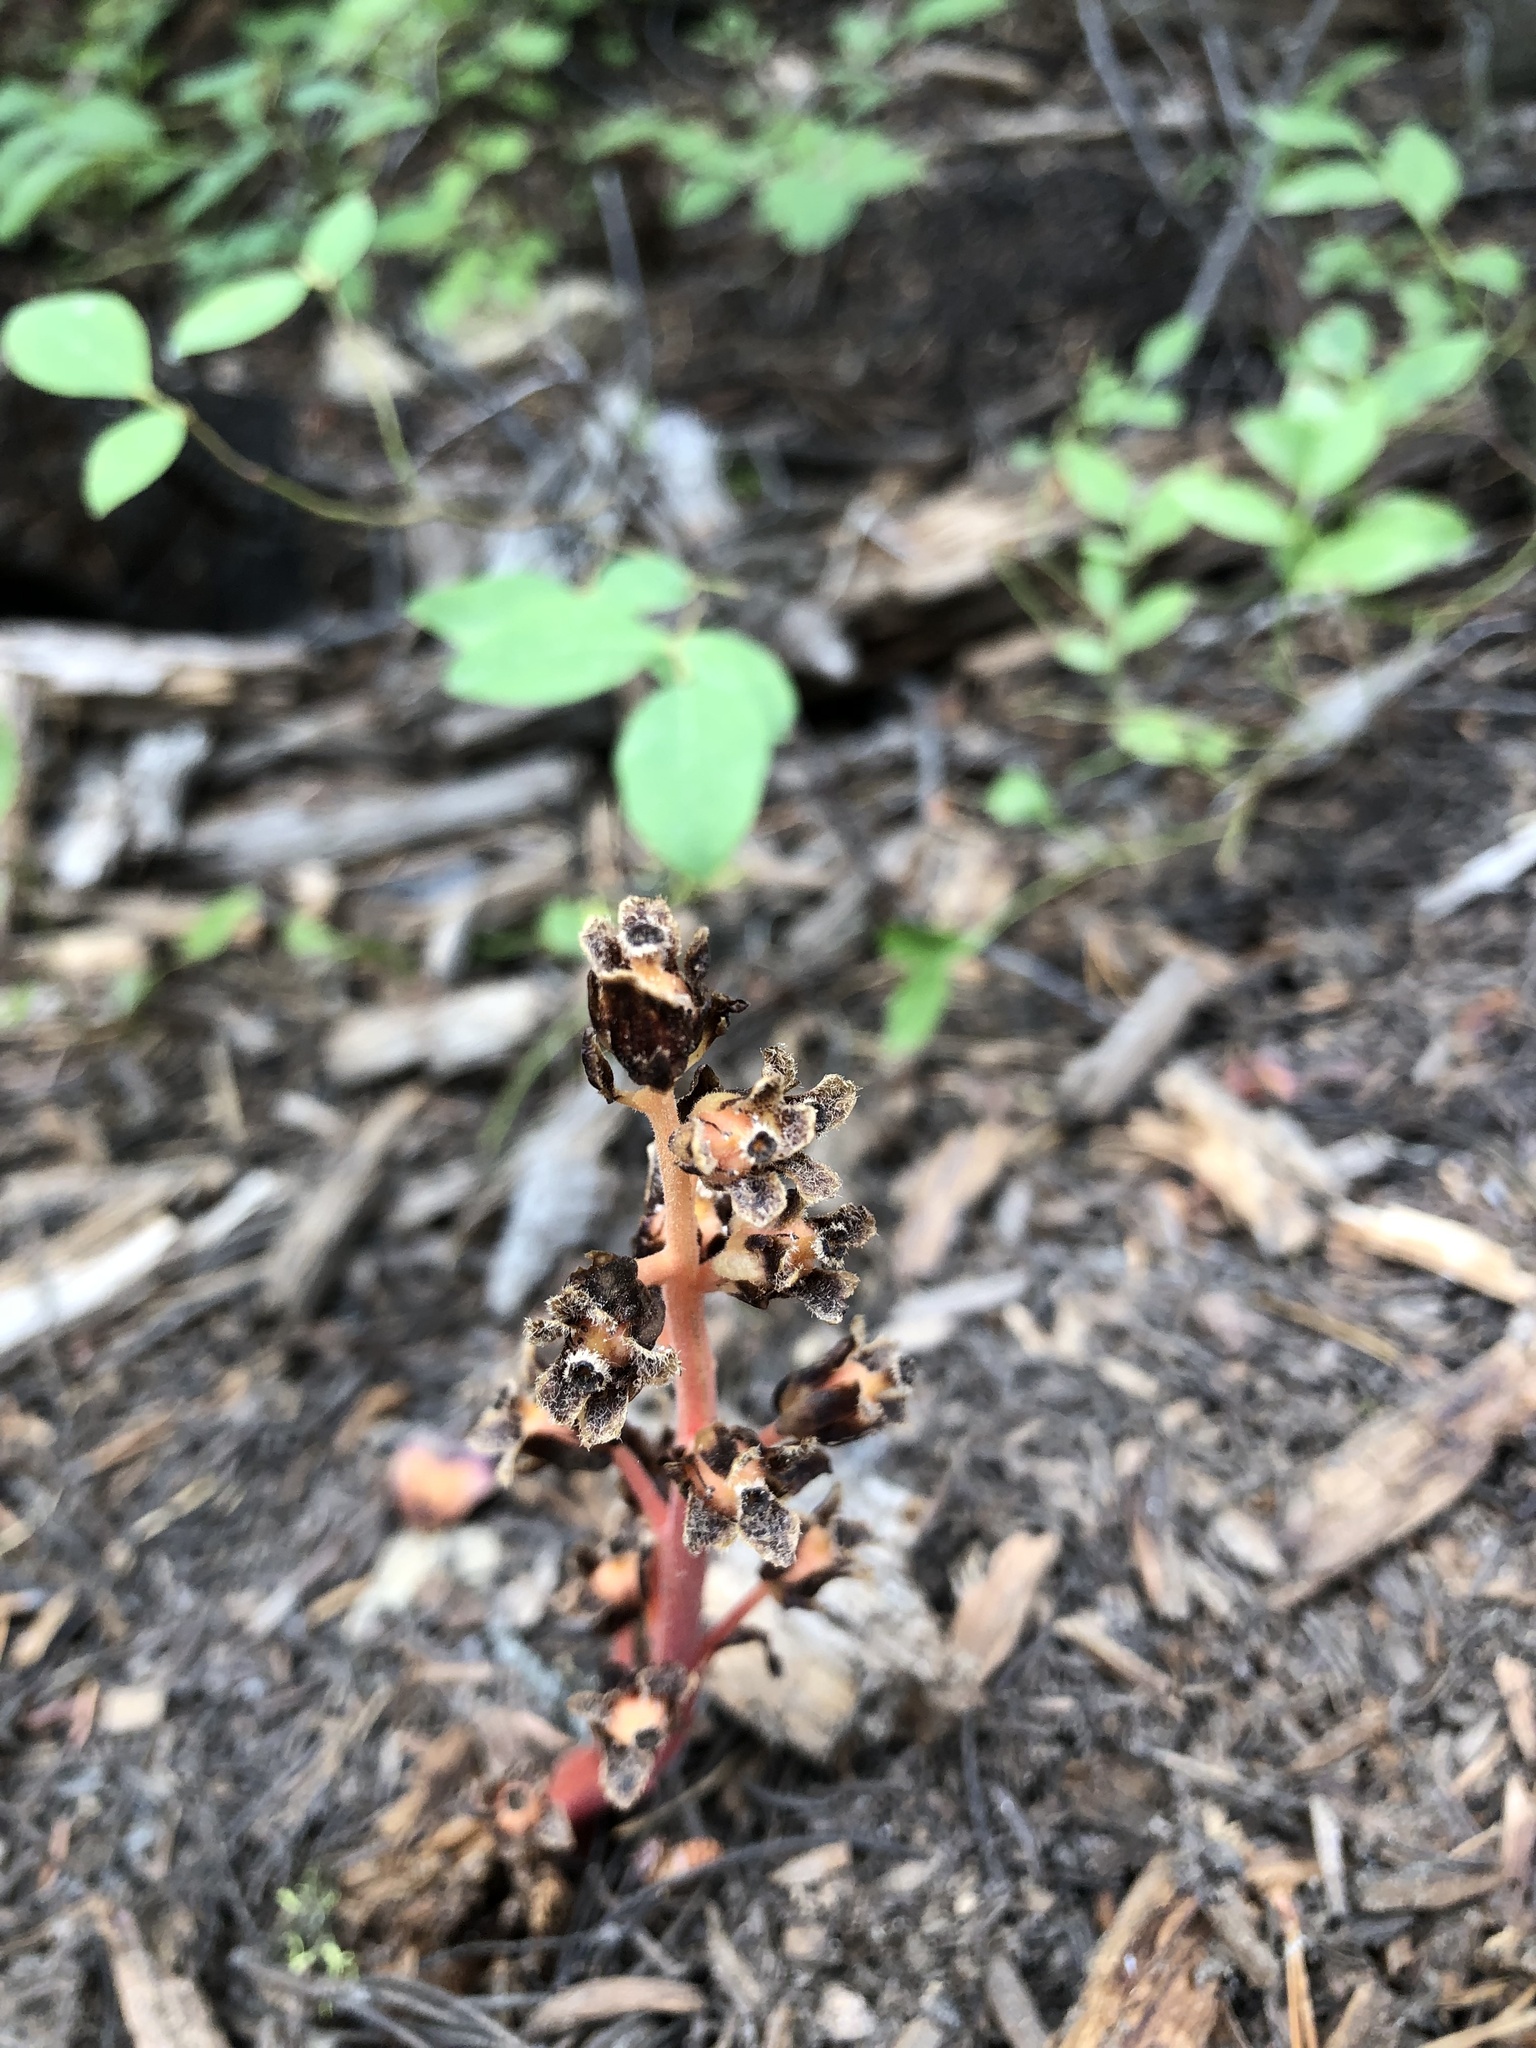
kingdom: Plantae
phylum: Tracheophyta
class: Magnoliopsida
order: Ericales
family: Ericaceae
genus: Hypopitys
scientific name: Hypopitys monotropa
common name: Yellow bird's-nest
